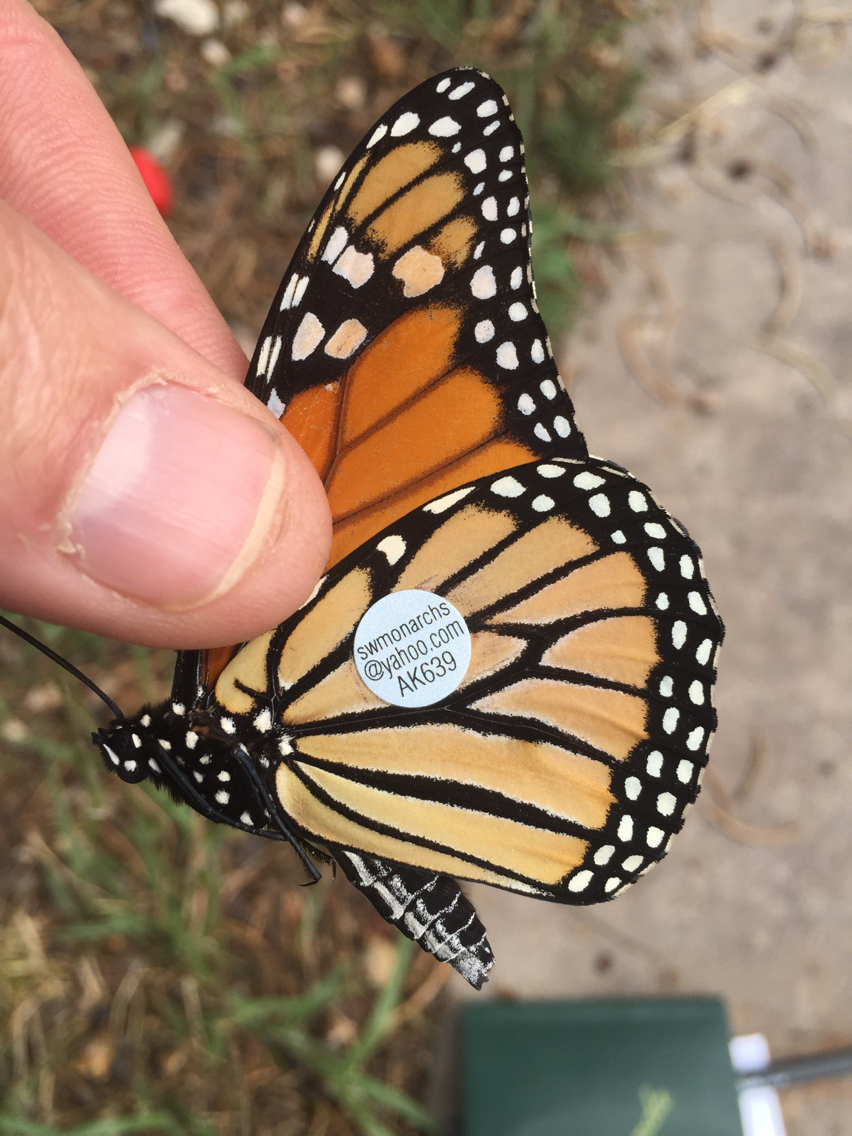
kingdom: Animalia
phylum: Arthropoda
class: Insecta
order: Lepidoptera
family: Nymphalidae
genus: Danaus
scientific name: Danaus plexippus
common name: Monarch
